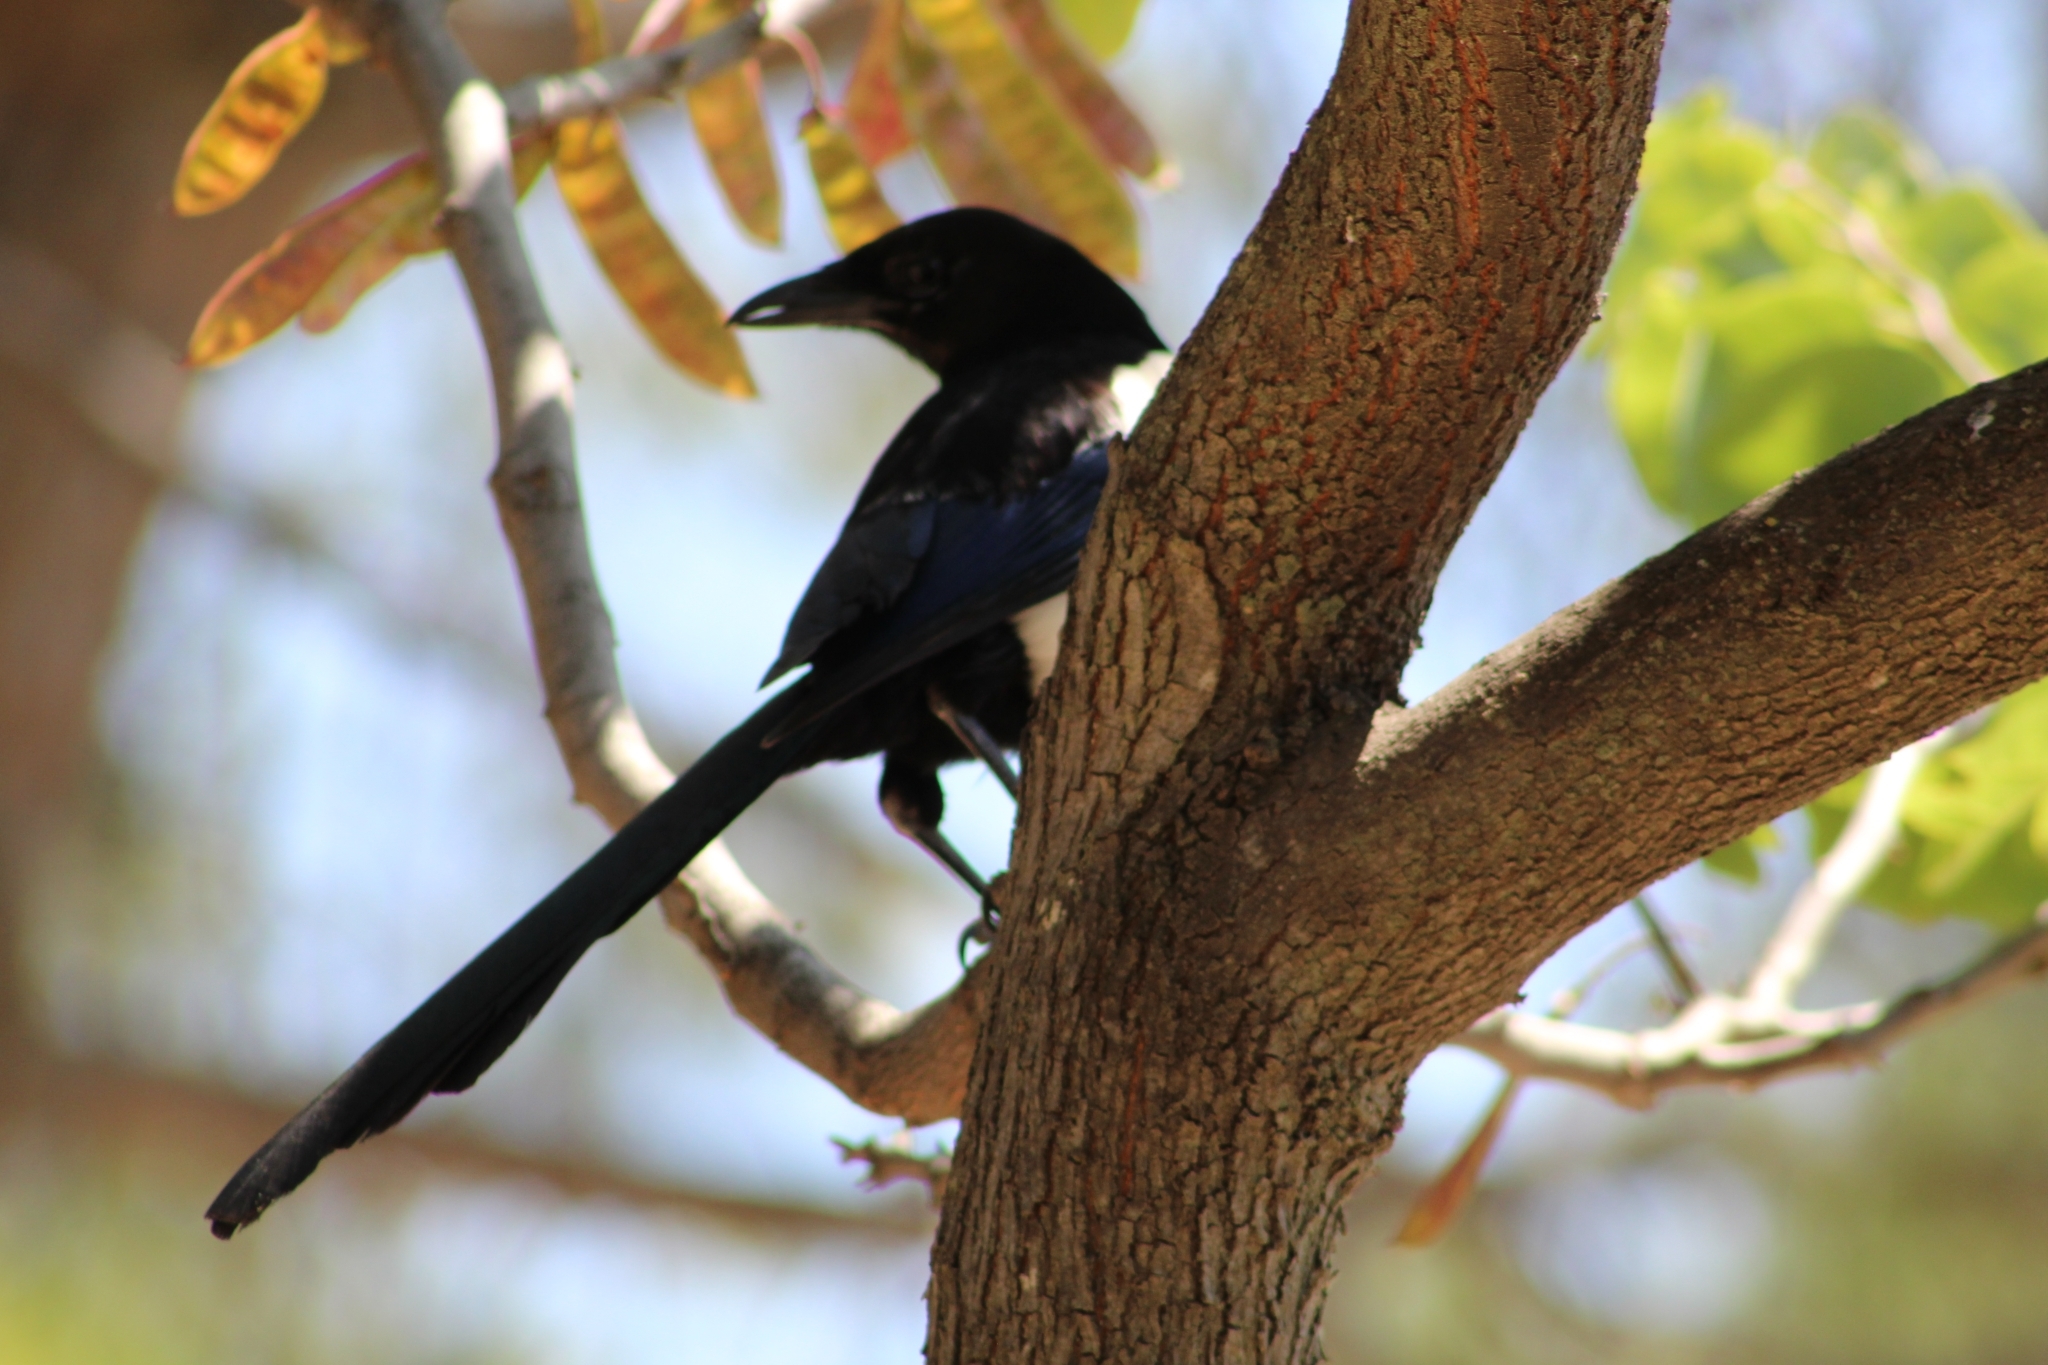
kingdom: Animalia
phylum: Chordata
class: Aves
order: Passeriformes
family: Corvidae
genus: Pica
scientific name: Pica pica
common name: Eurasian magpie
